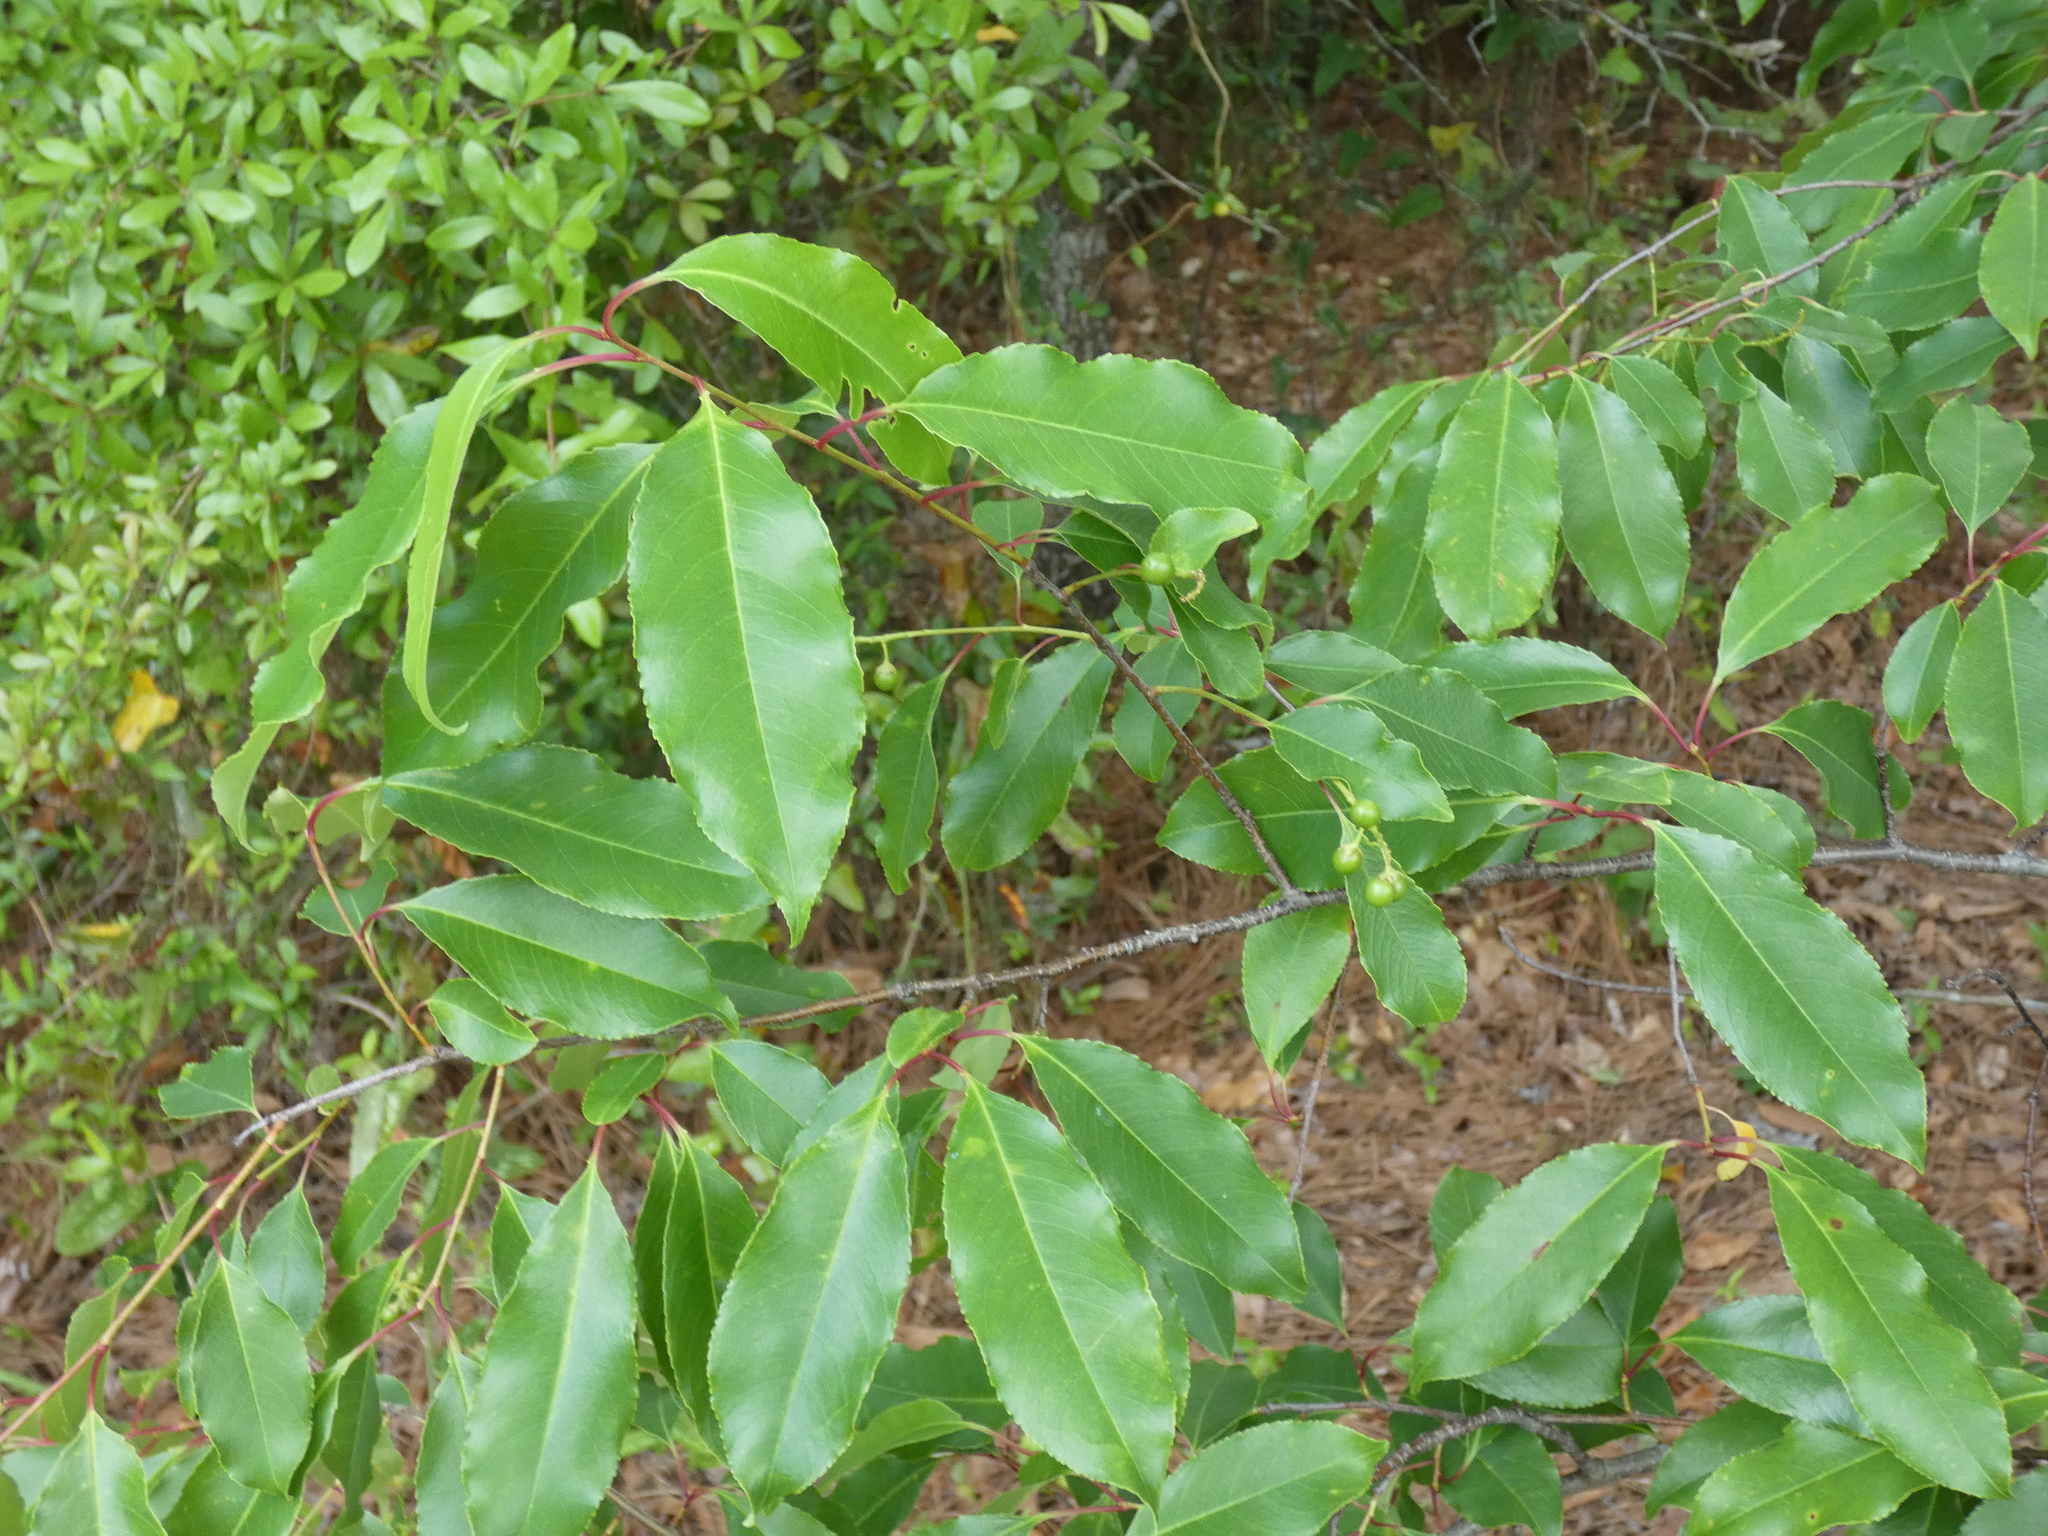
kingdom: Plantae
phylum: Tracheophyta
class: Magnoliopsida
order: Rosales
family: Rosaceae
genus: Prunus
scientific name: Prunus serotina
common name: Black cherry
